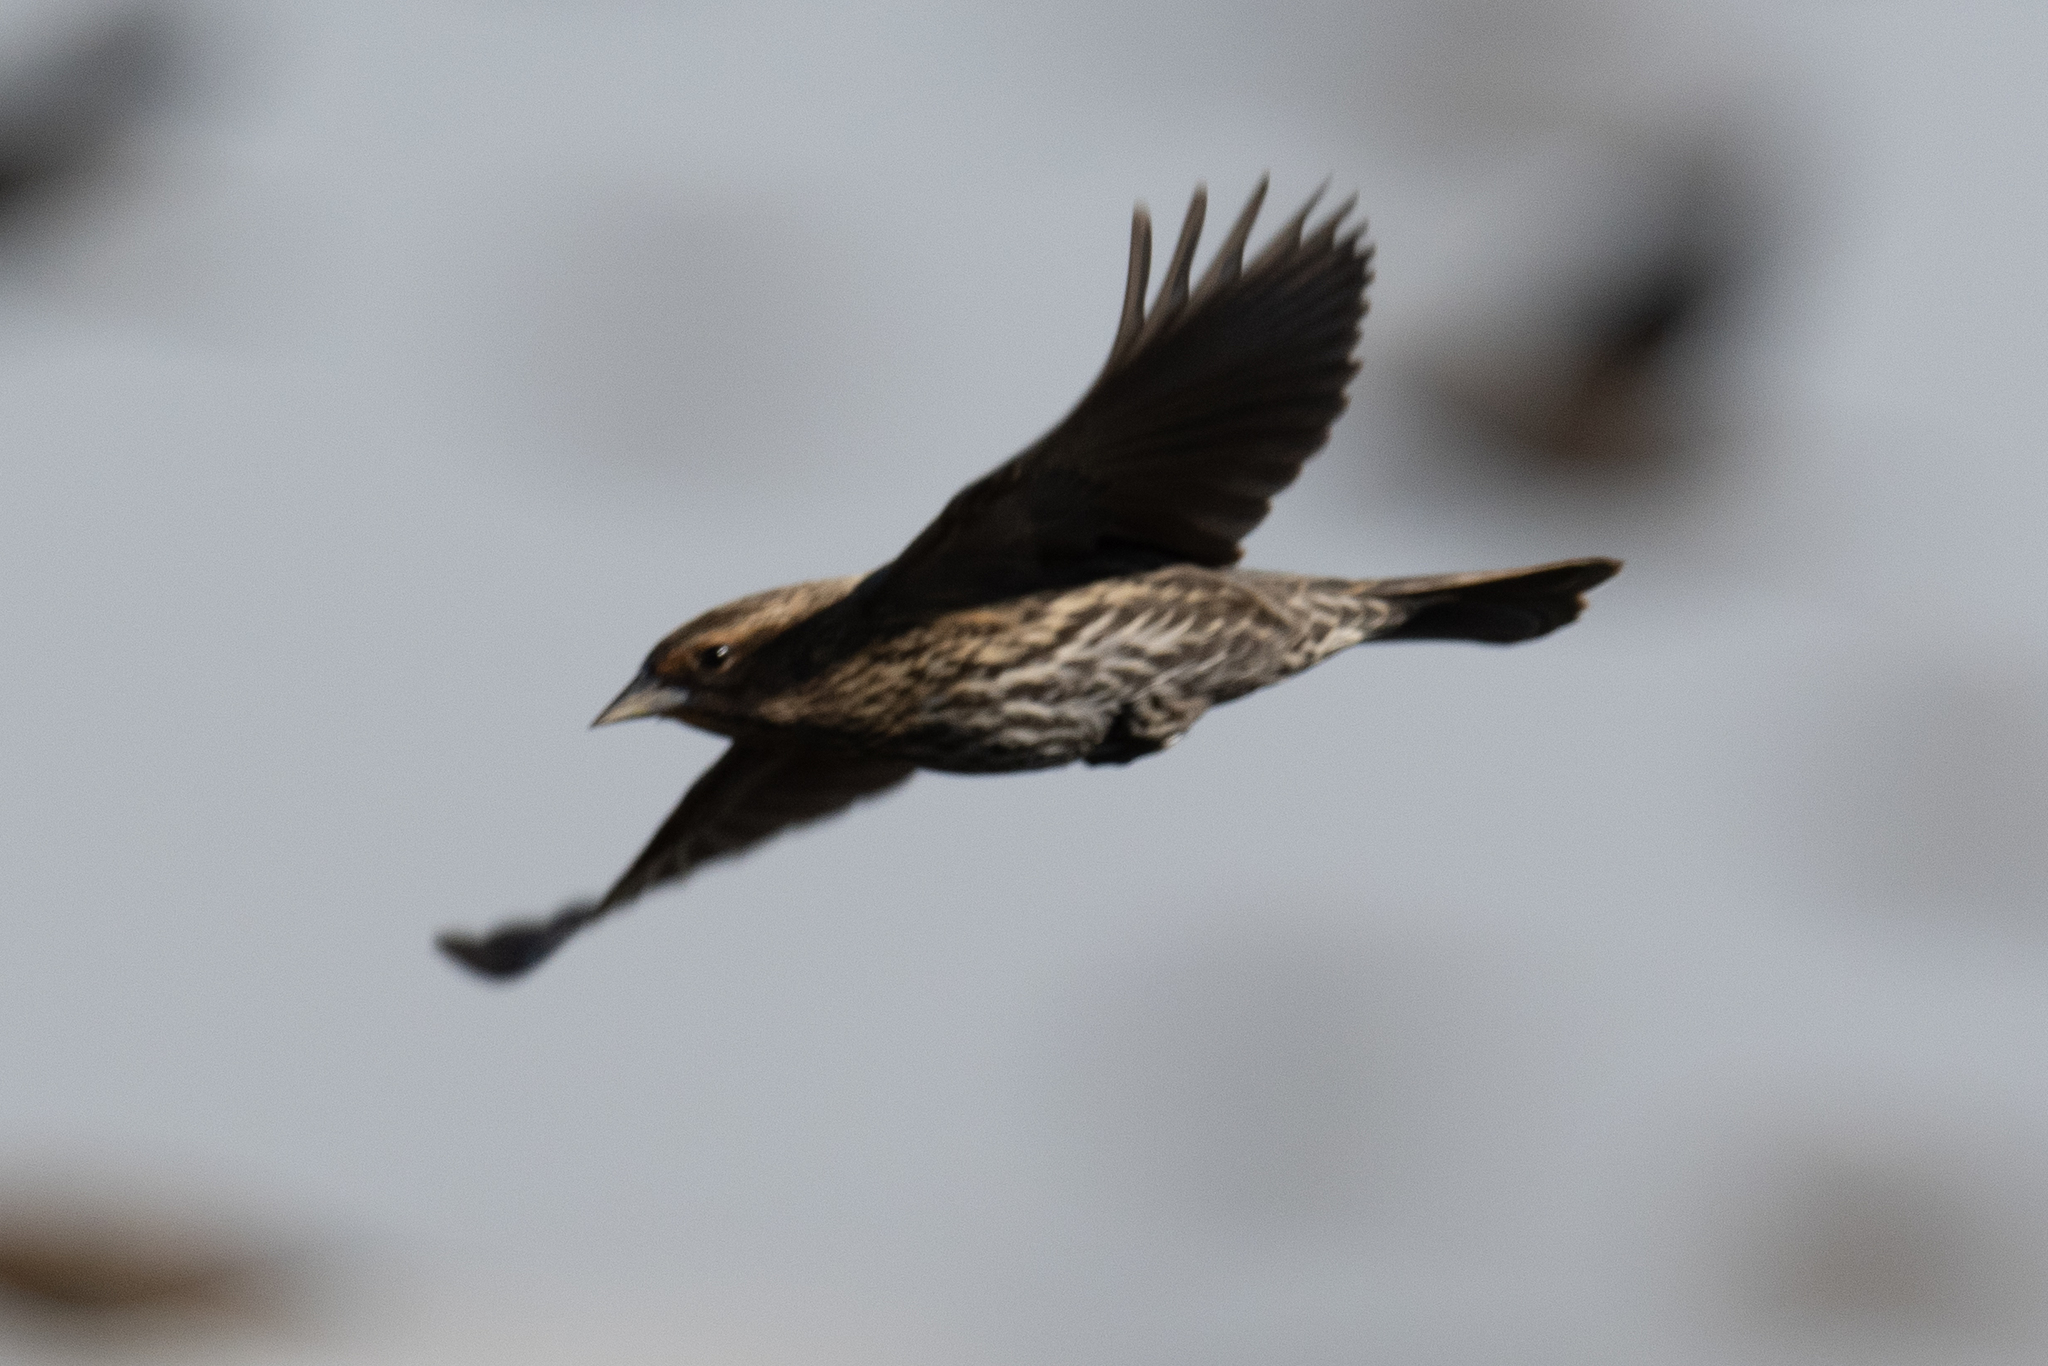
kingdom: Animalia
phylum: Chordata
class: Aves
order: Passeriformes
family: Icteridae
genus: Agelaius
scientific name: Agelaius phoeniceus
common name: Red-winged blackbird
